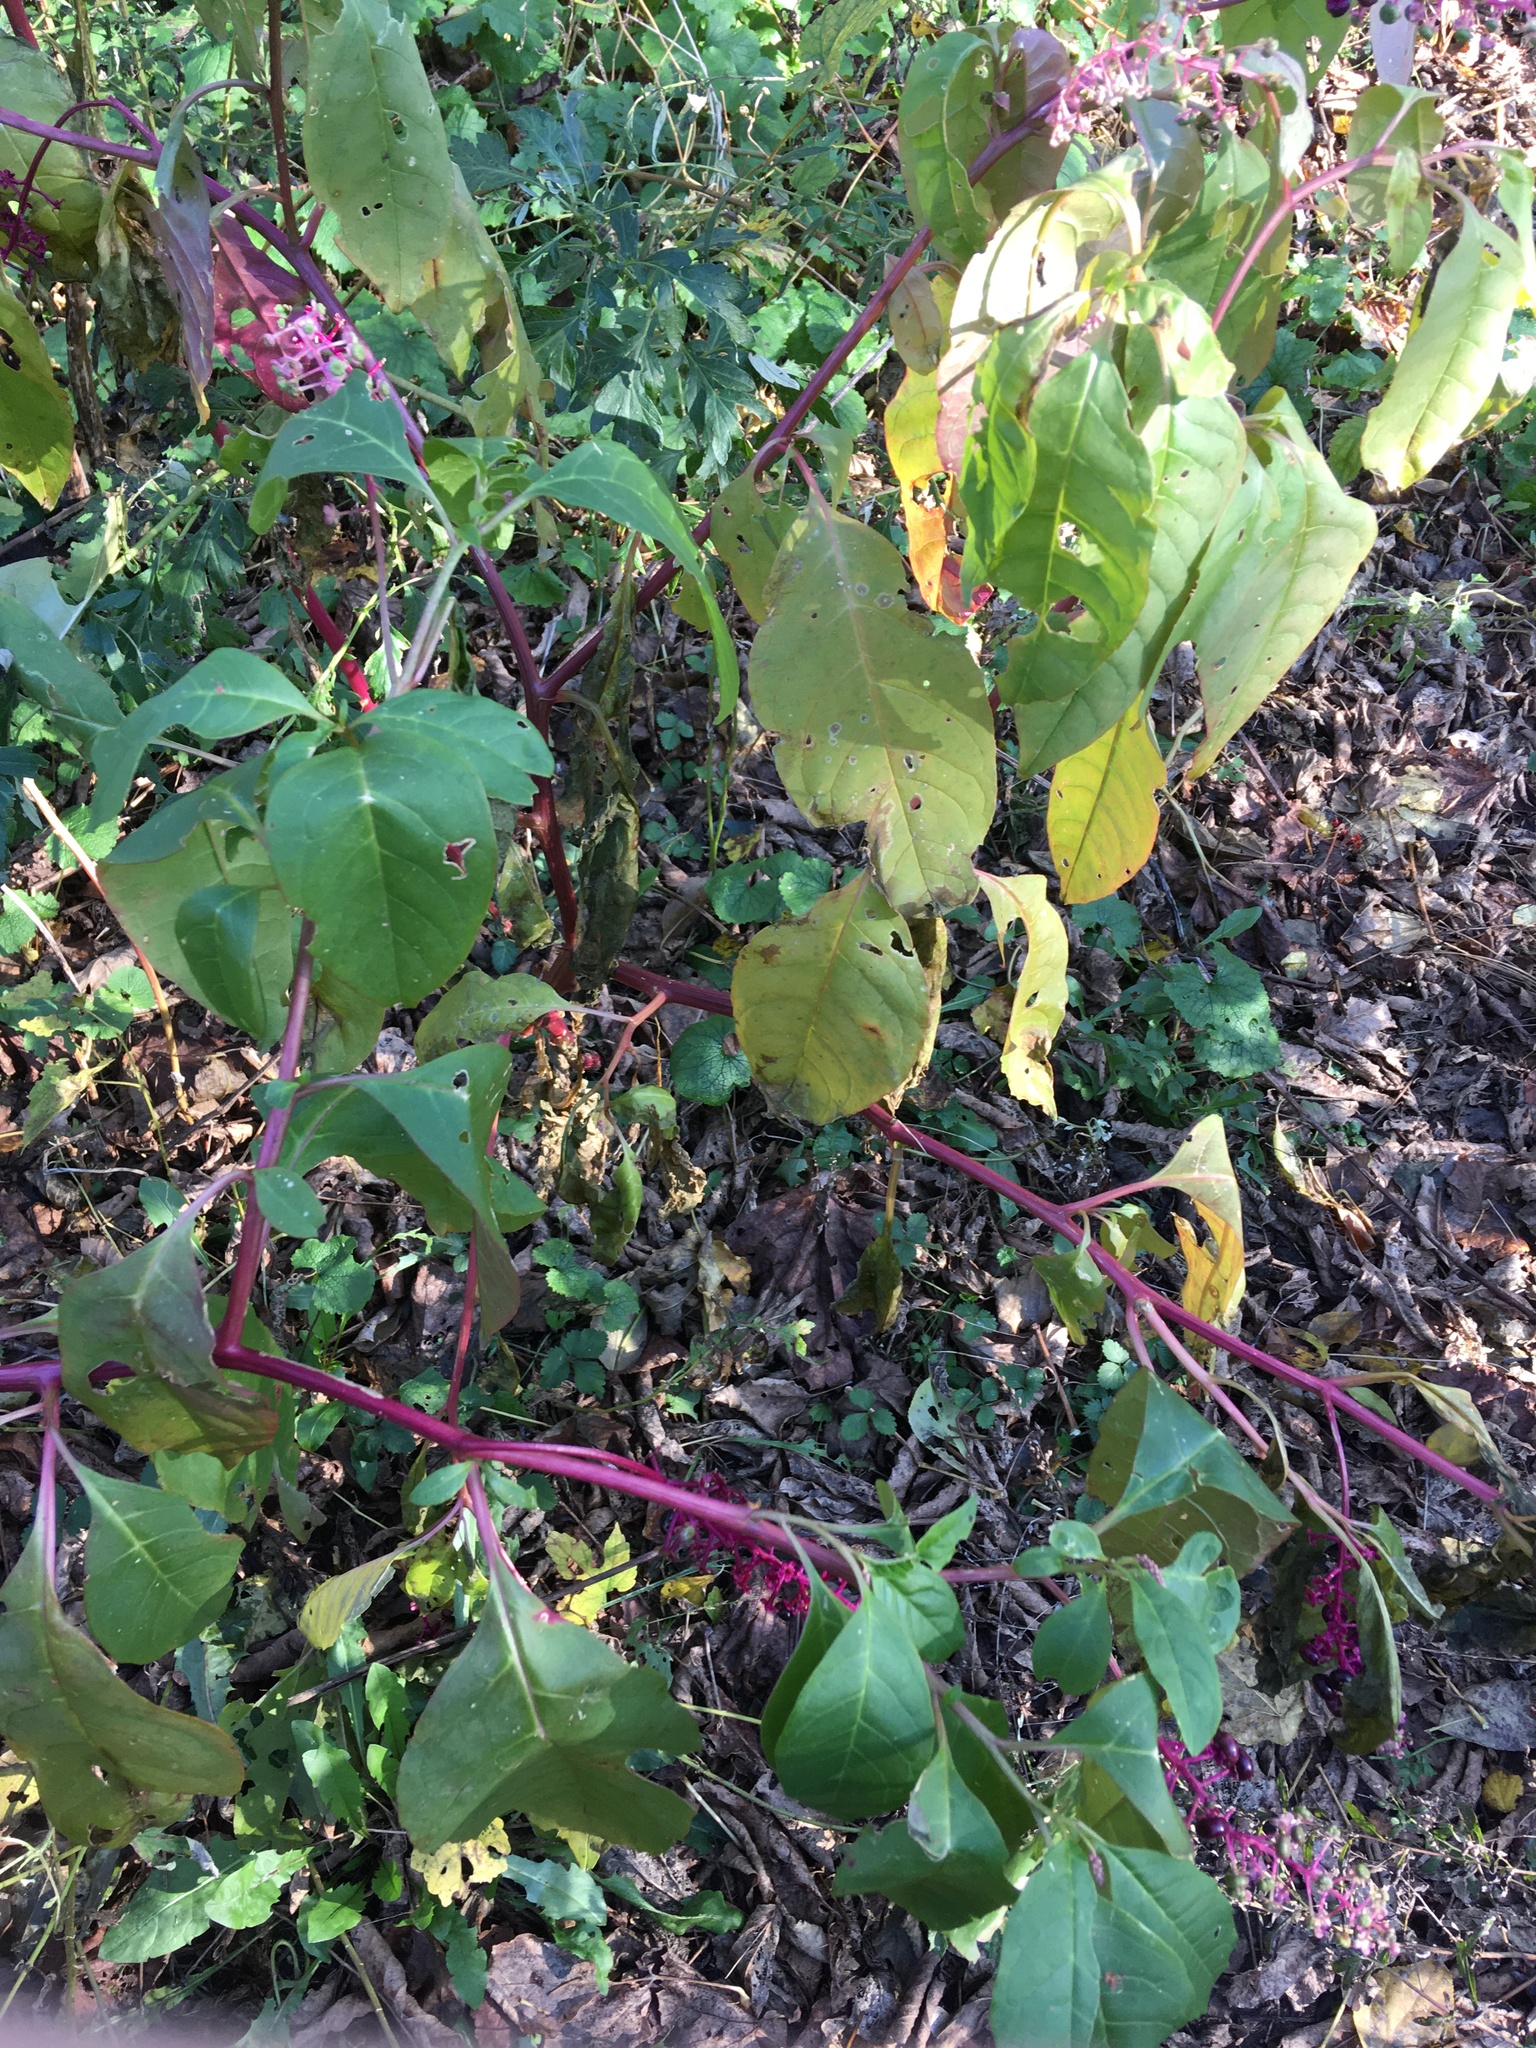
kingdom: Plantae
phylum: Tracheophyta
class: Magnoliopsida
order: Caryophyllales
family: Phytolaccaceae
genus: Phytolacca
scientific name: Phytolacca americana
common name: American pokeweed
